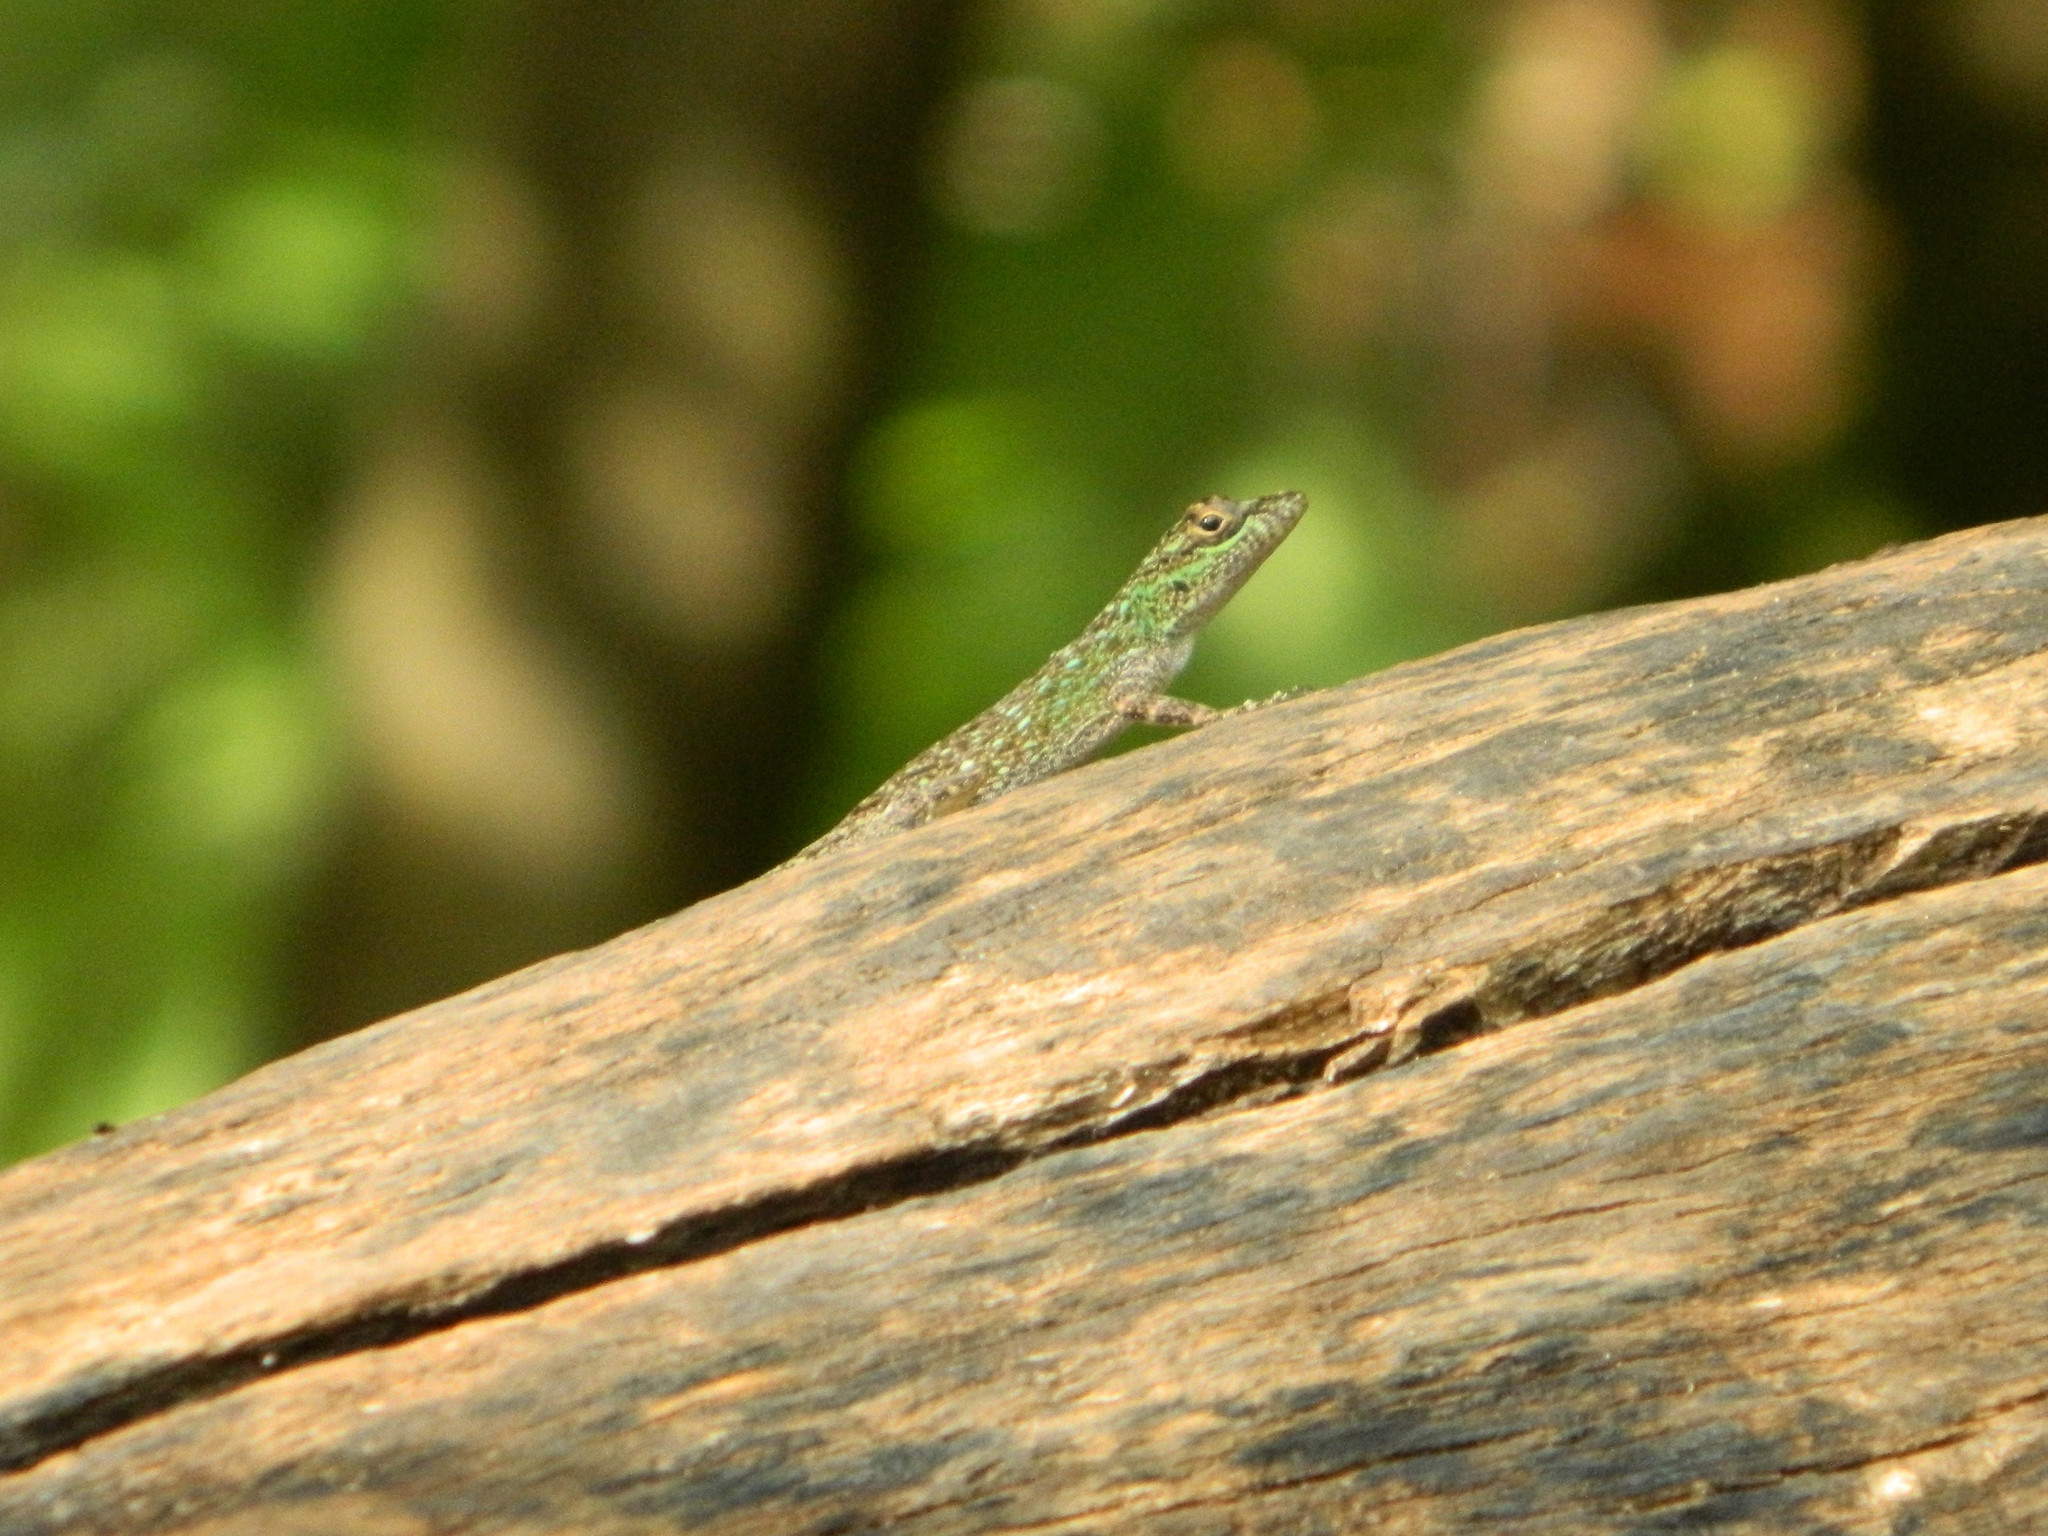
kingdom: Animalia
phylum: Chordata
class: Squamata
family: Dactyloidae
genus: Anolis
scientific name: Anolis distichus
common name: Bark anole
